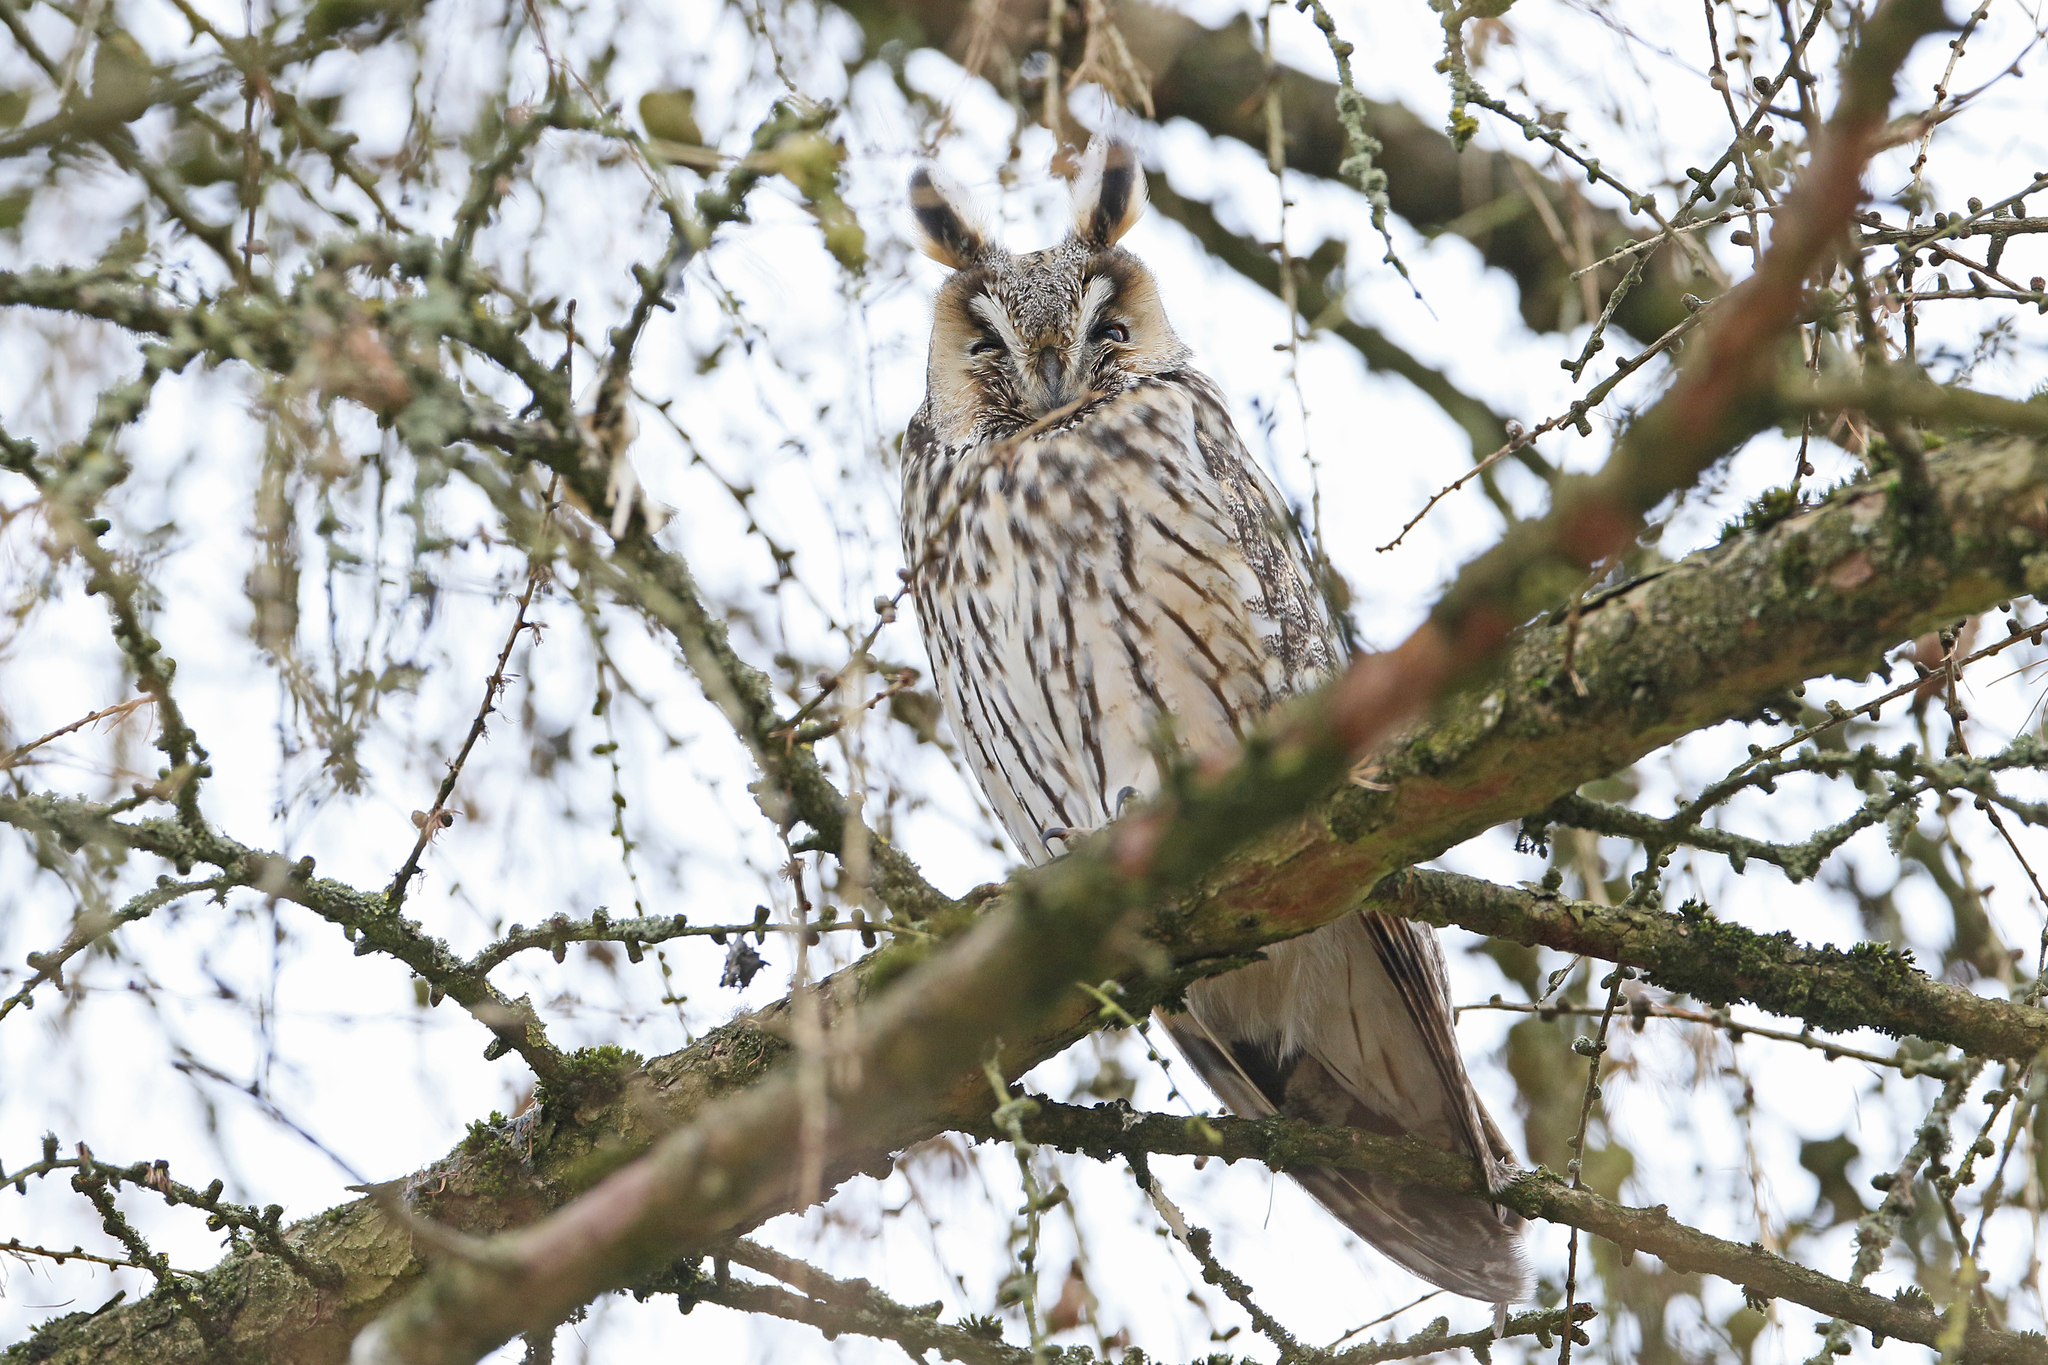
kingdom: Animalia
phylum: Chordata
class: Aves
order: Strigiformes
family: Strigidae
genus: Asio
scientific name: Asio otus
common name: Long-eared owl
